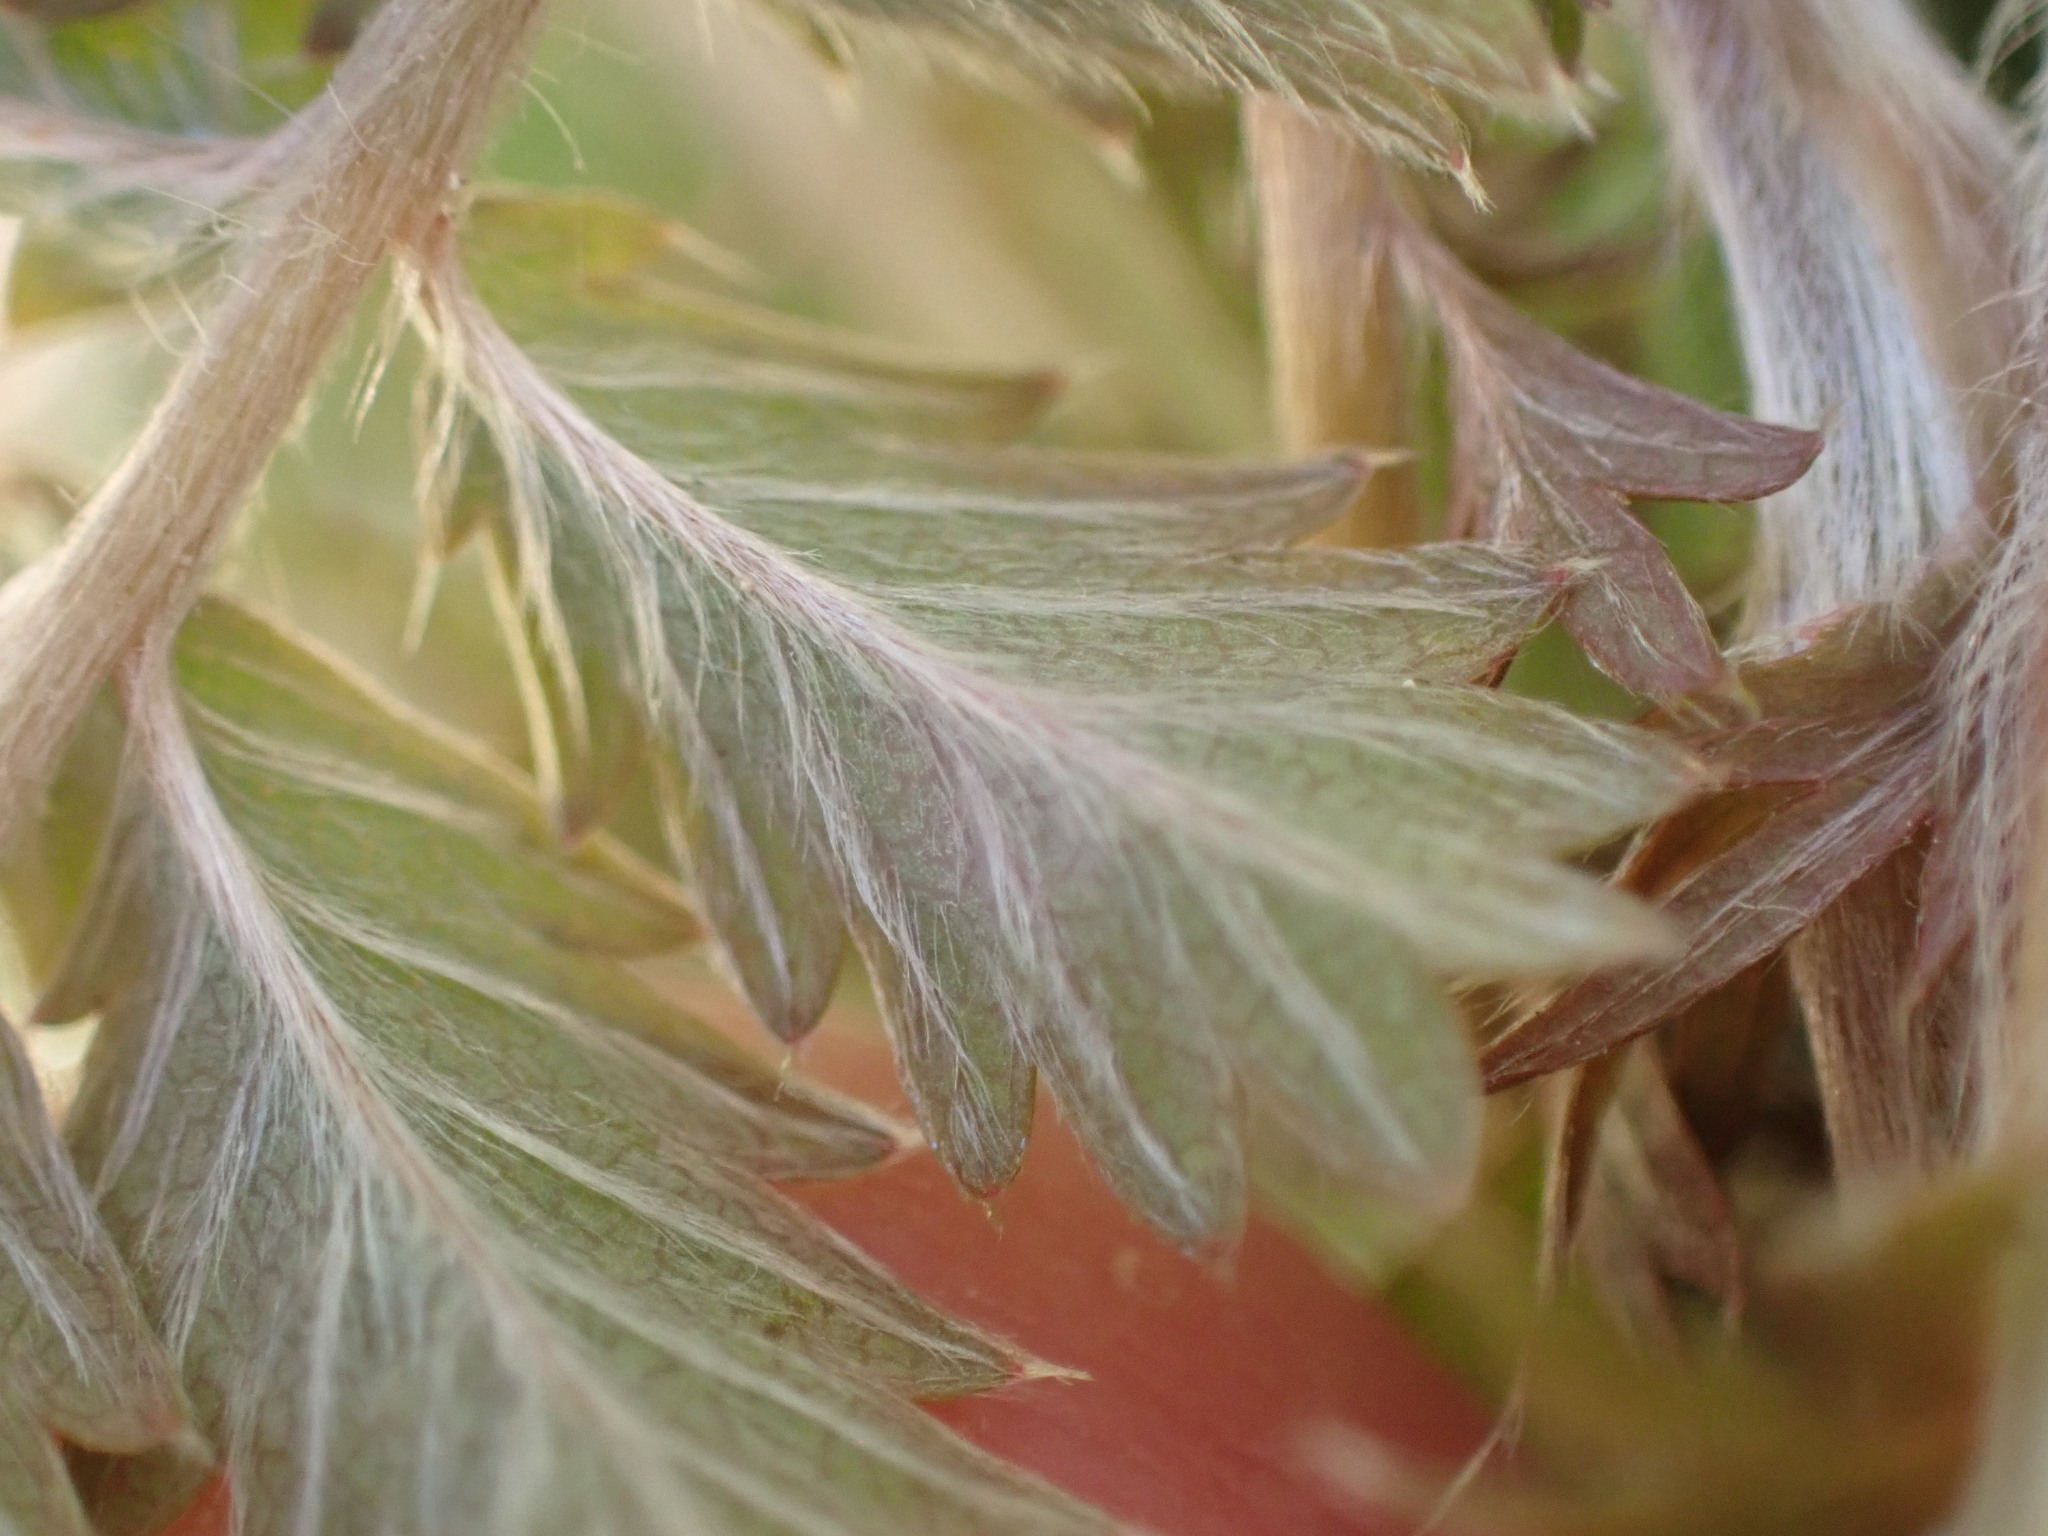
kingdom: Plantae
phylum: Tracheophyta
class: Magnoliopsida
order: Rosales
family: Rosaceae
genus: Acaena
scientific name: Acaena anserinifolia
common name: Bronze pirri-pirri-bur
